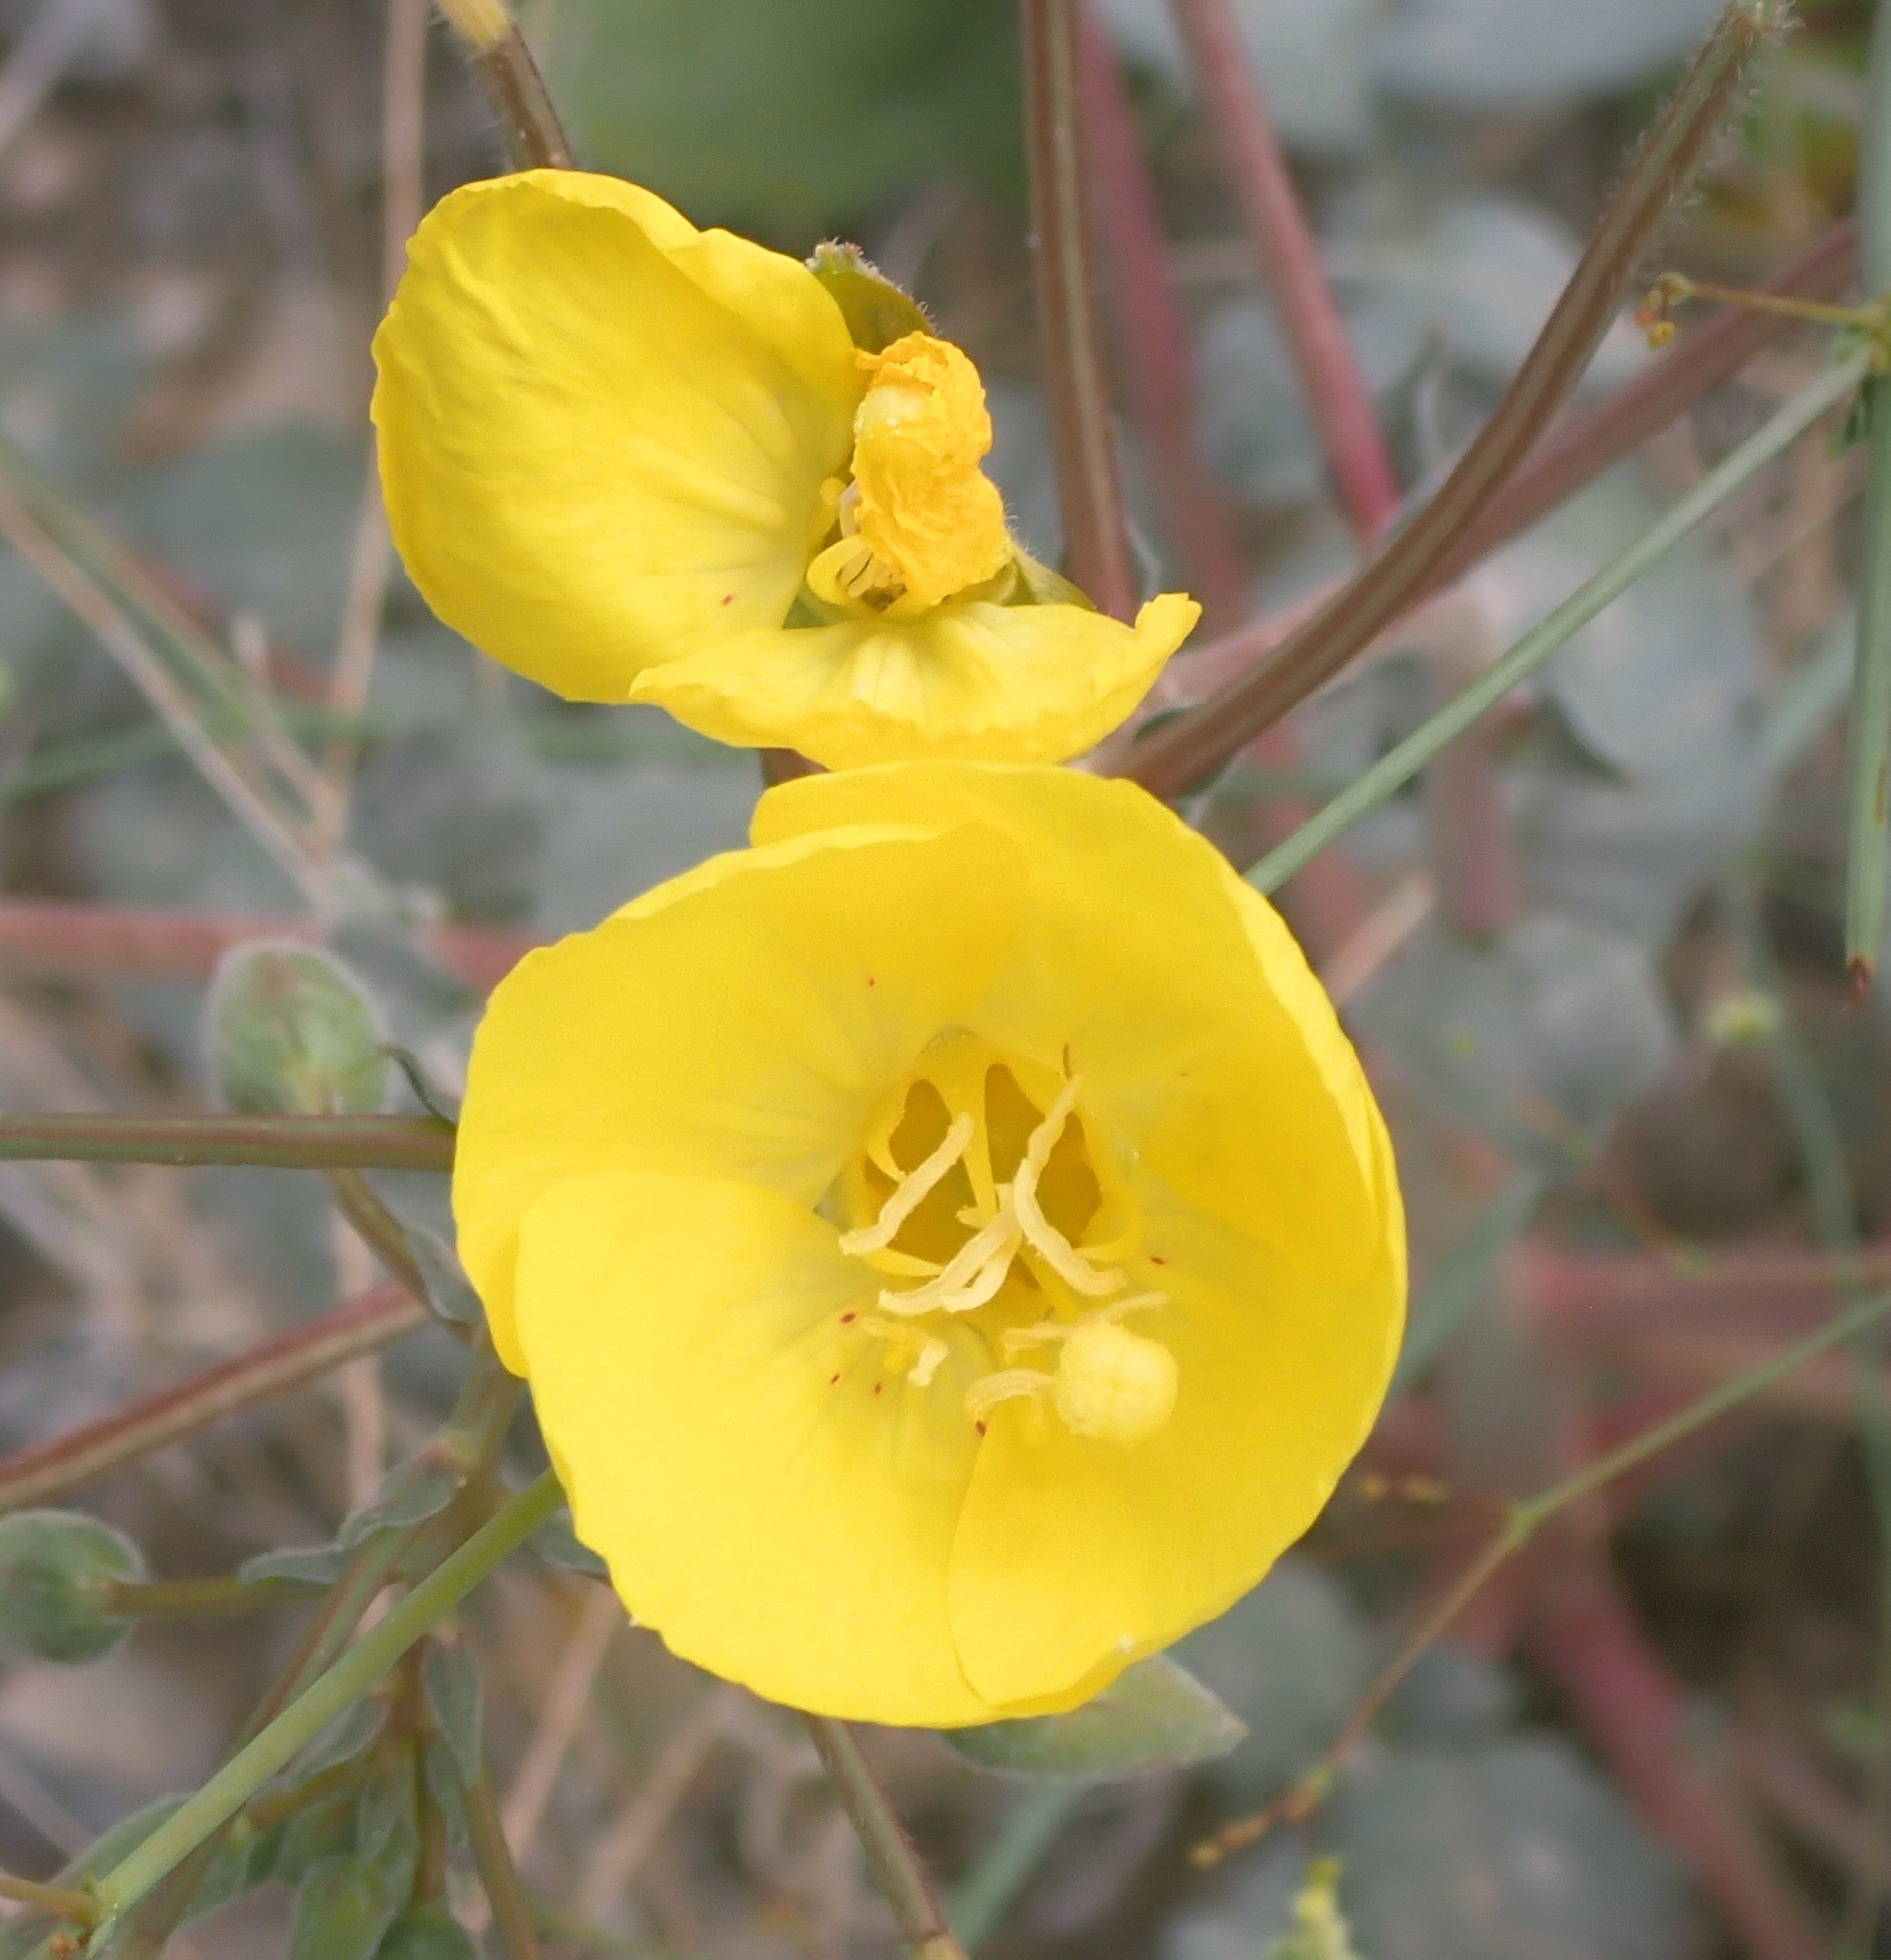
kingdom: Plantae
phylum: Tracheophyta
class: Magnoliopsida
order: Myrtales
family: Onagraceae
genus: Chylismia
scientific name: Chylismia brevipes
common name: Yellow cups
